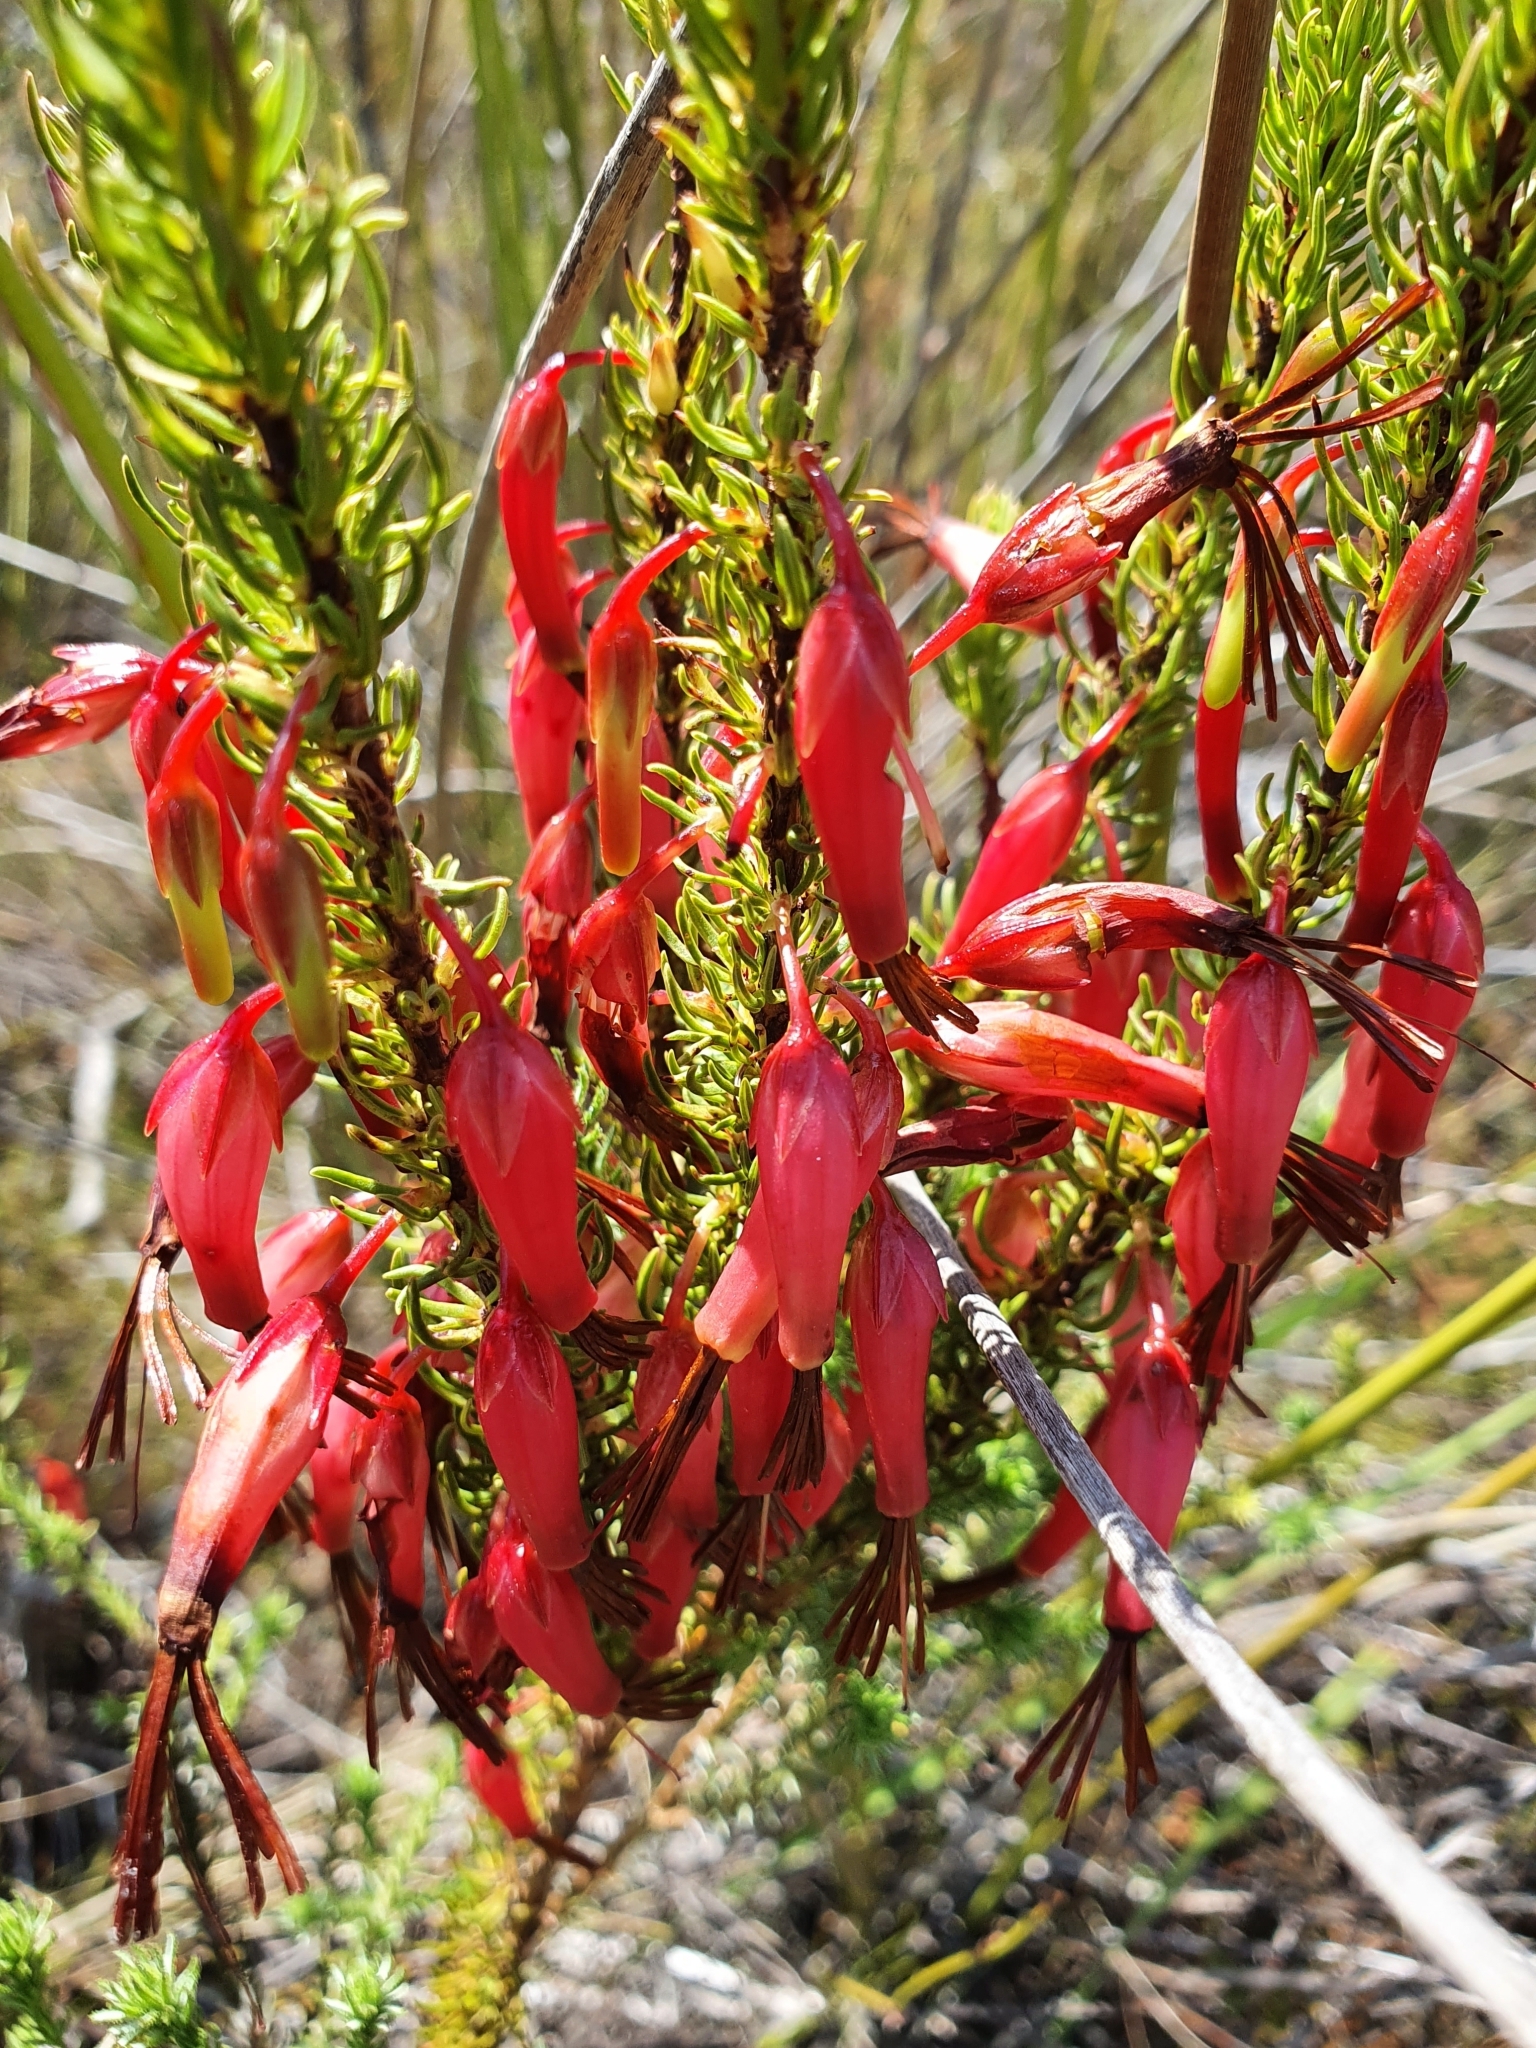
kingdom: Plantae
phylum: Tracheophyta
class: Magnoliopsida
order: Ericales
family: Ericaceae
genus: Erica
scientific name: Erica plukenetii
